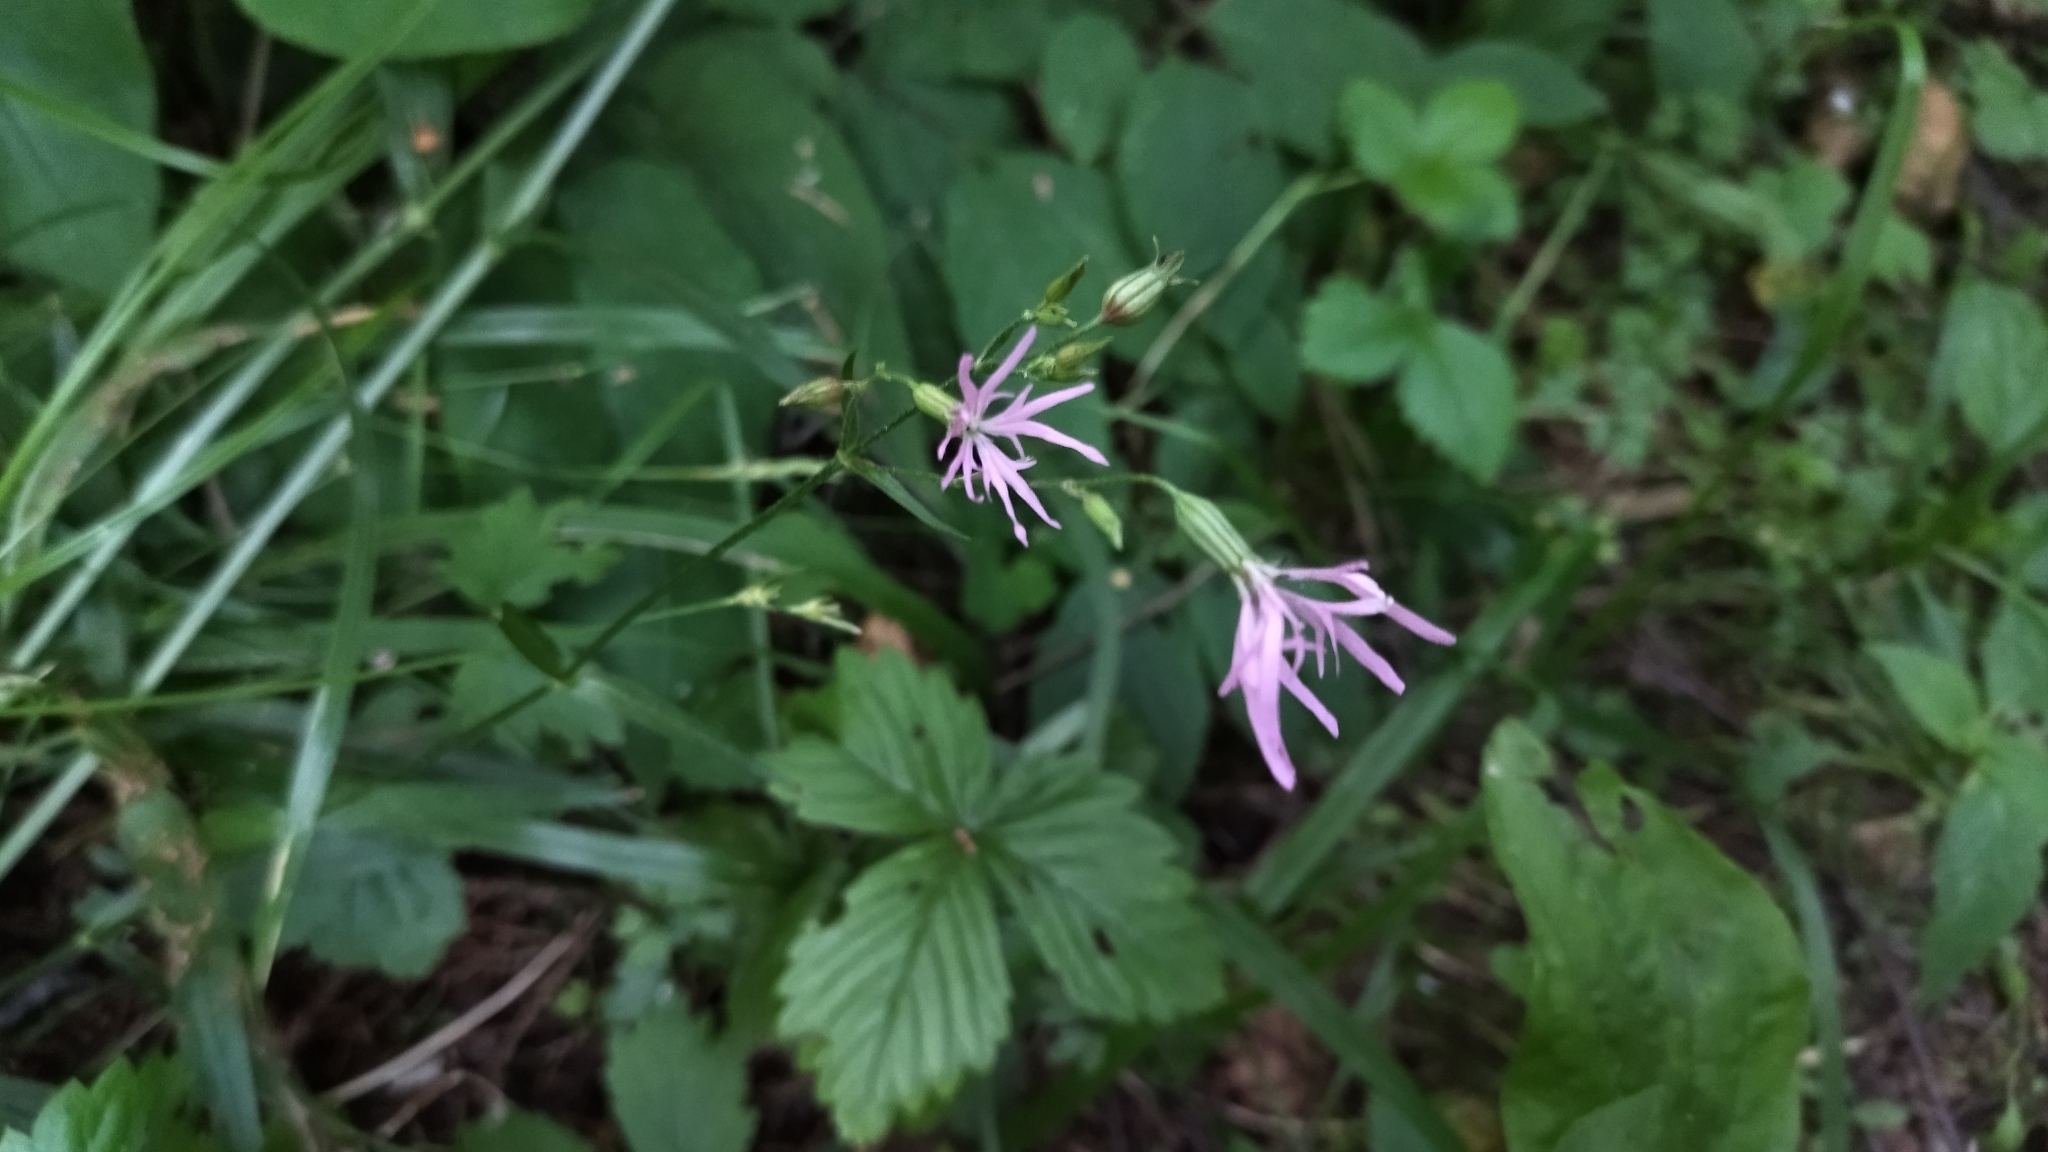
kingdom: Plantae
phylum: Tracheophyta
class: Magnoliopsida
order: Caryophyllales
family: Caryophyllaceae
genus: Silene
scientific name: Silene flos-cuculi
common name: Ragged-robin
